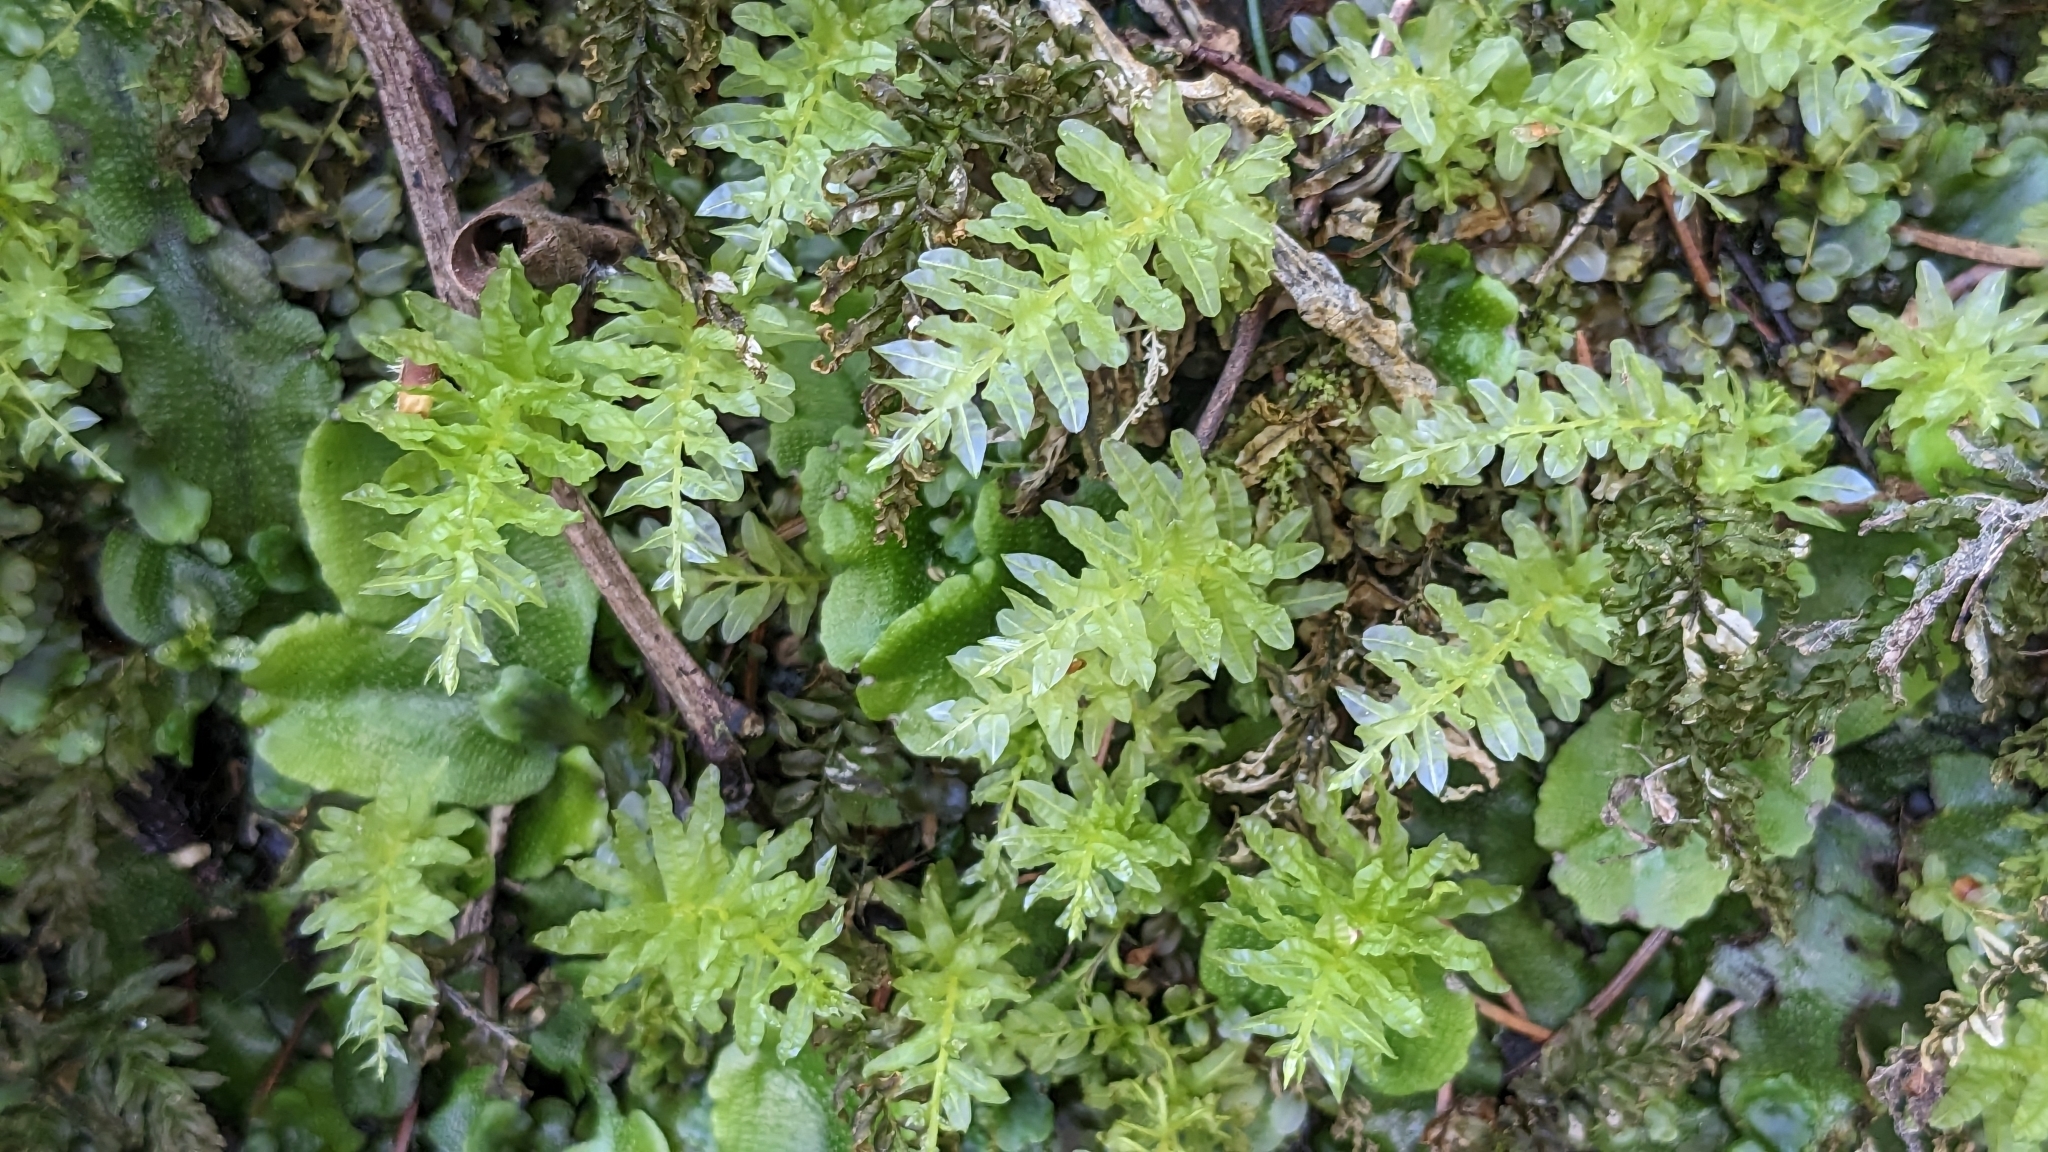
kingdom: Plantae
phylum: Bryophyta
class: Bryopsida
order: Bryales
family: Mniaceae
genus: Plagiomnium
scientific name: Plagiomnium undulatum
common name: Hart's-tongue thyme-moss
